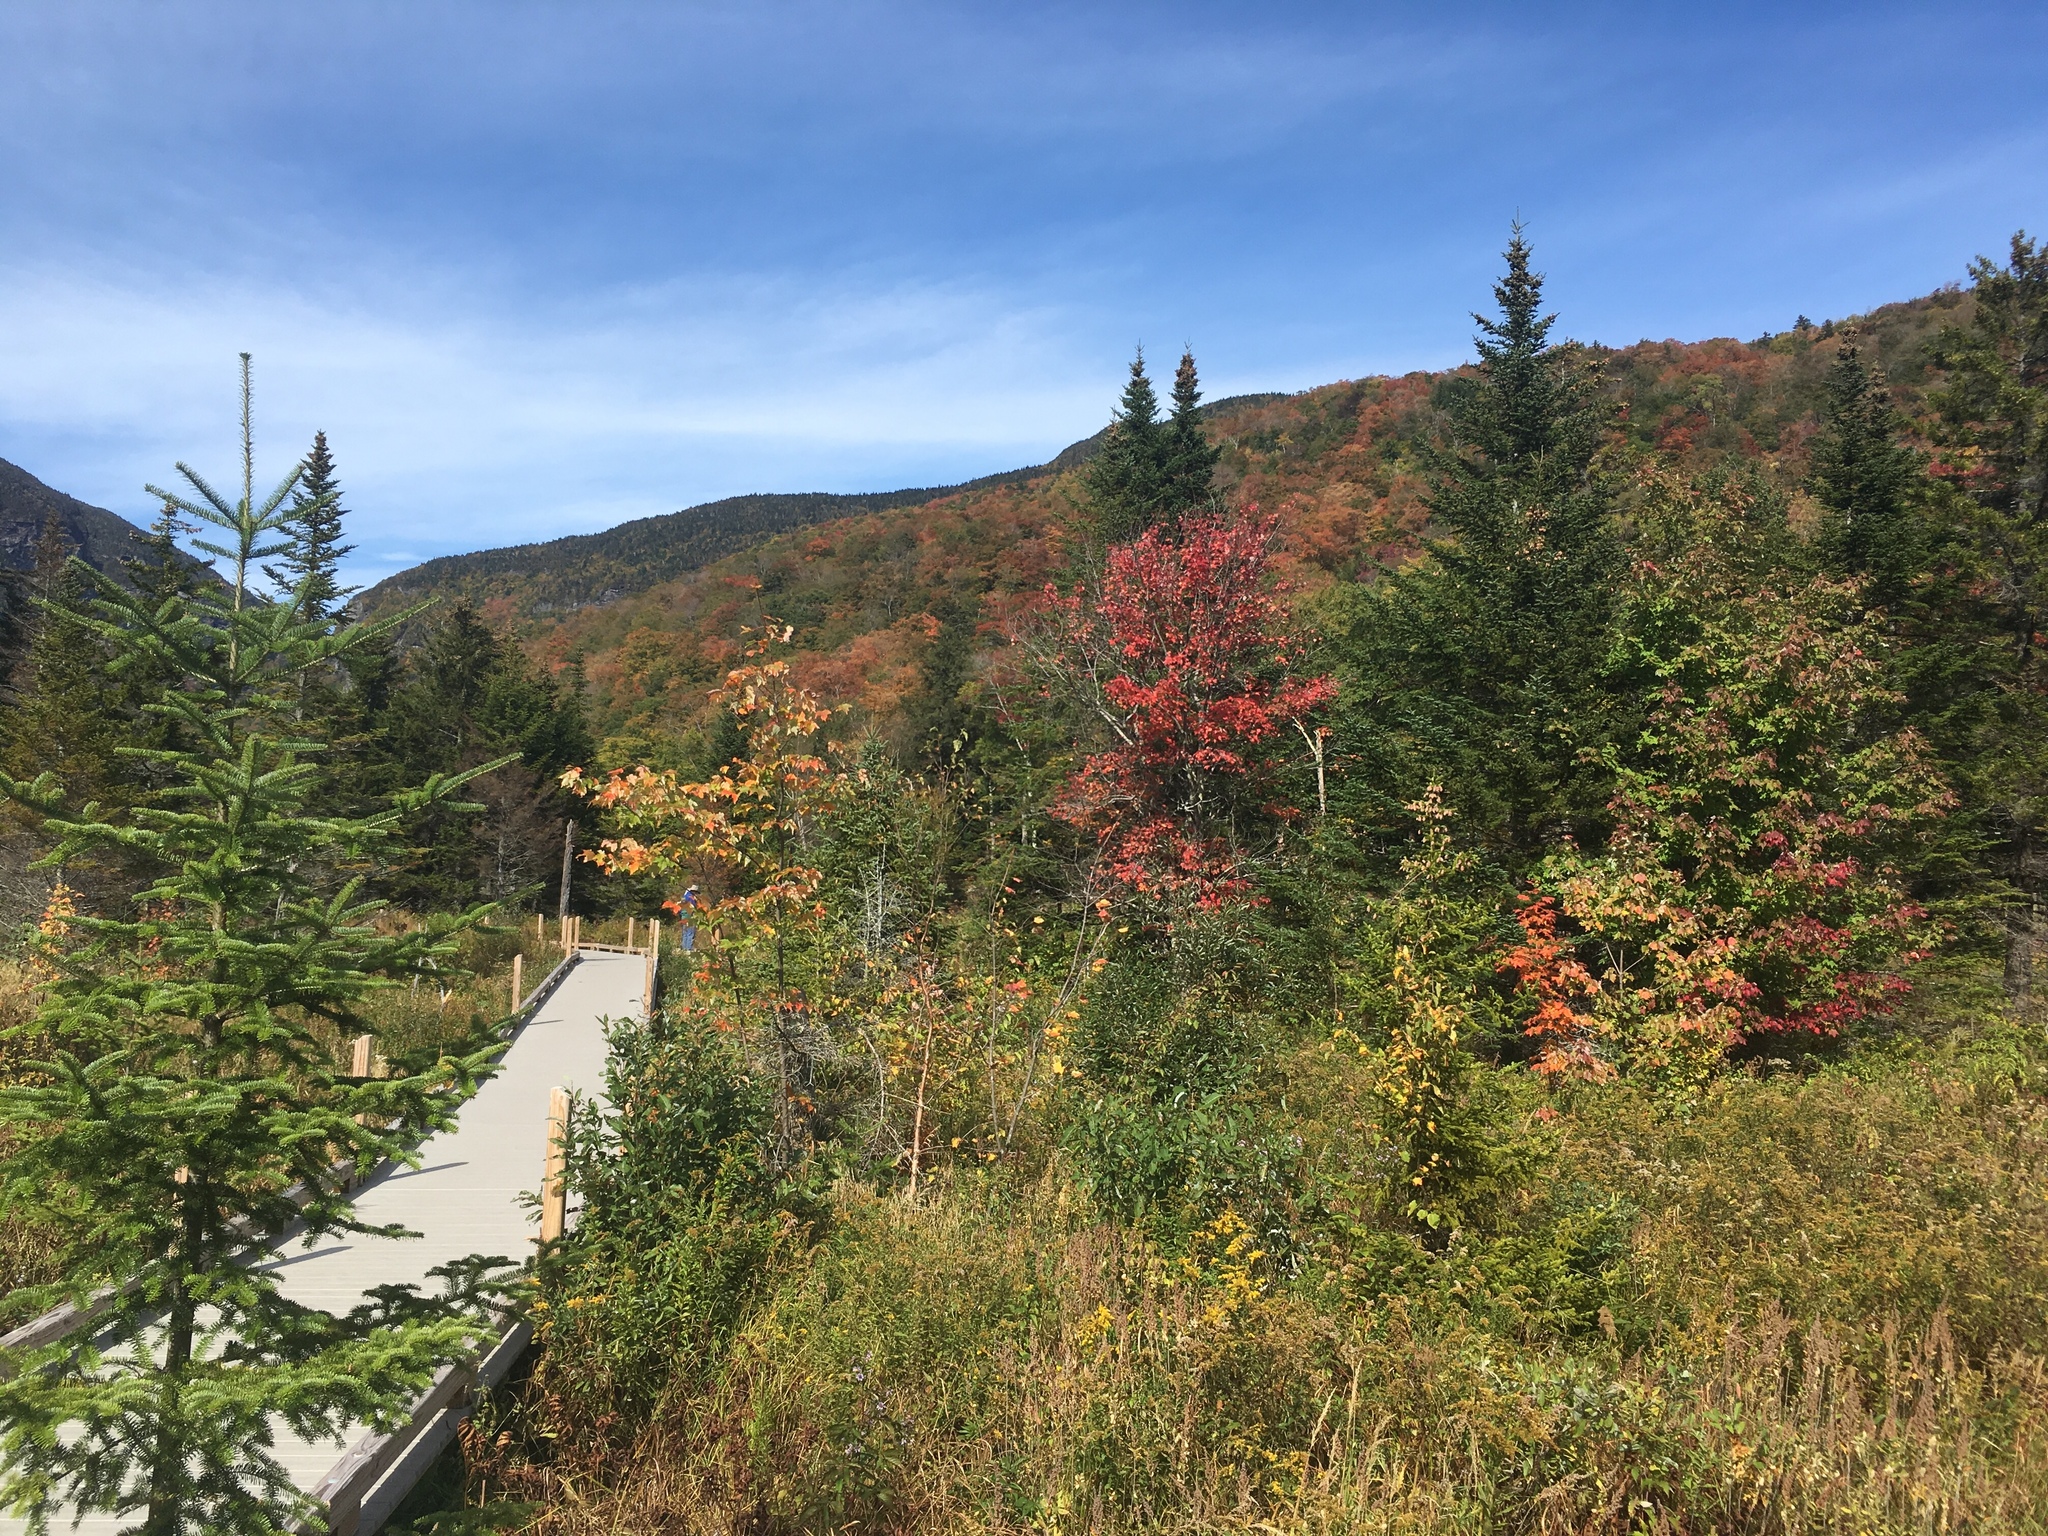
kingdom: Plantae
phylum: Tracheophyta
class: Magnoliopsida
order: Sapindales
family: Sapindaceae
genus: Acer
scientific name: Acer rubrum
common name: Red maple
